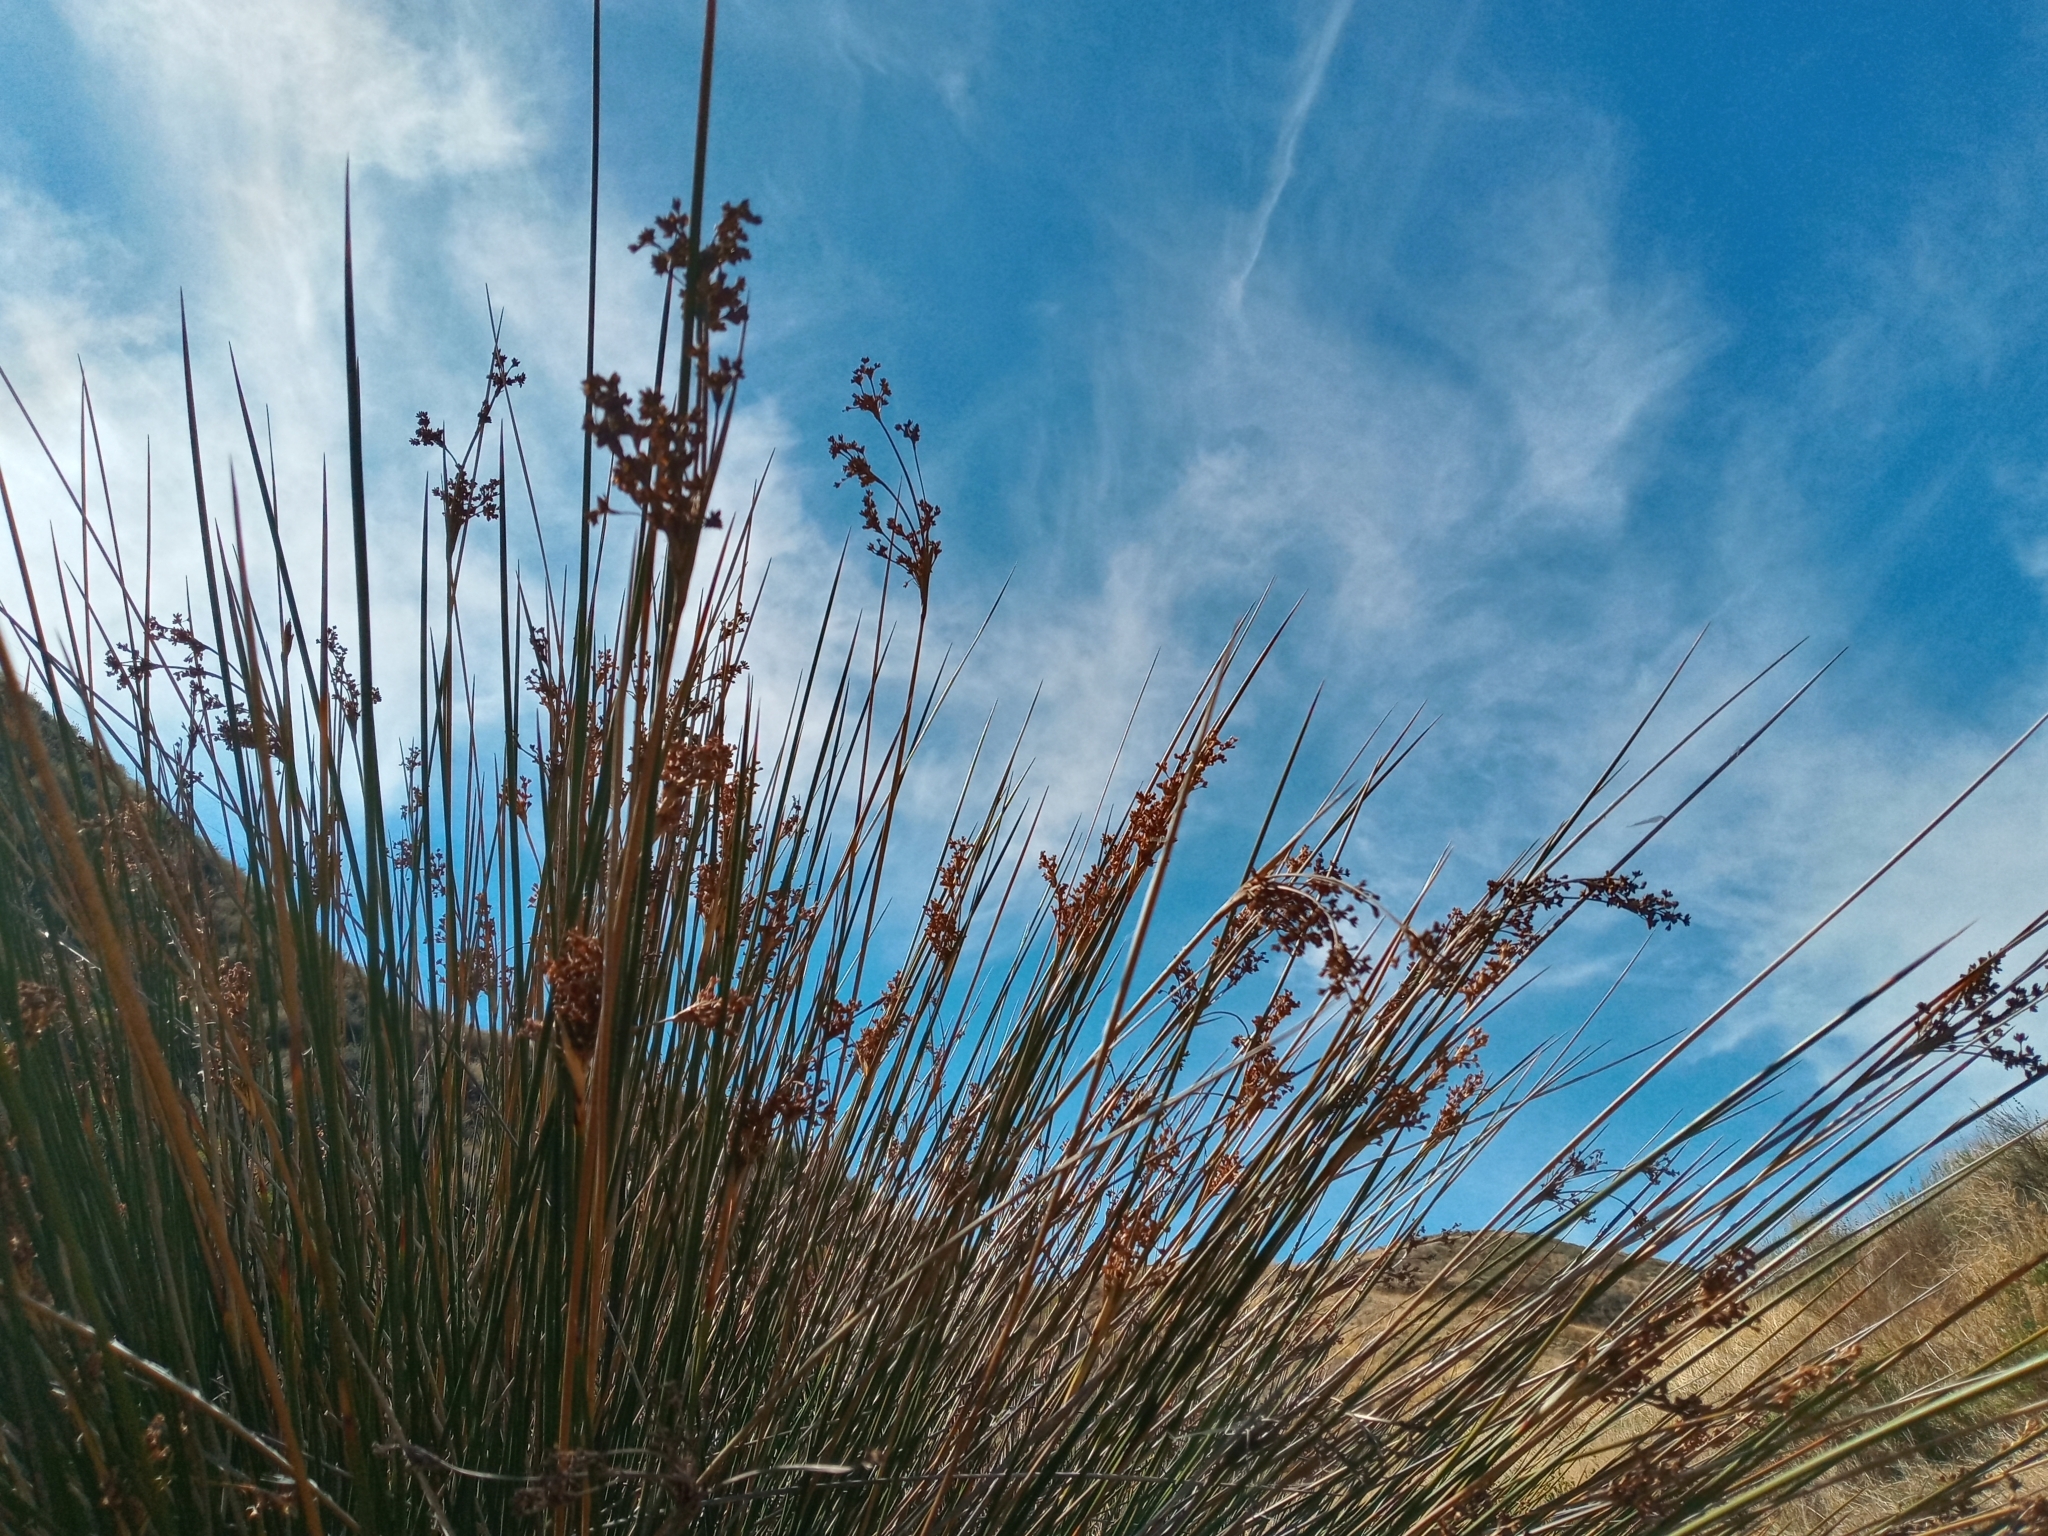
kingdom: Plantae
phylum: Tracheophyta
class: Liliopsida
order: Poales
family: Juncaceae
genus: Juncus
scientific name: Juncus acutus
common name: Sharp rush
